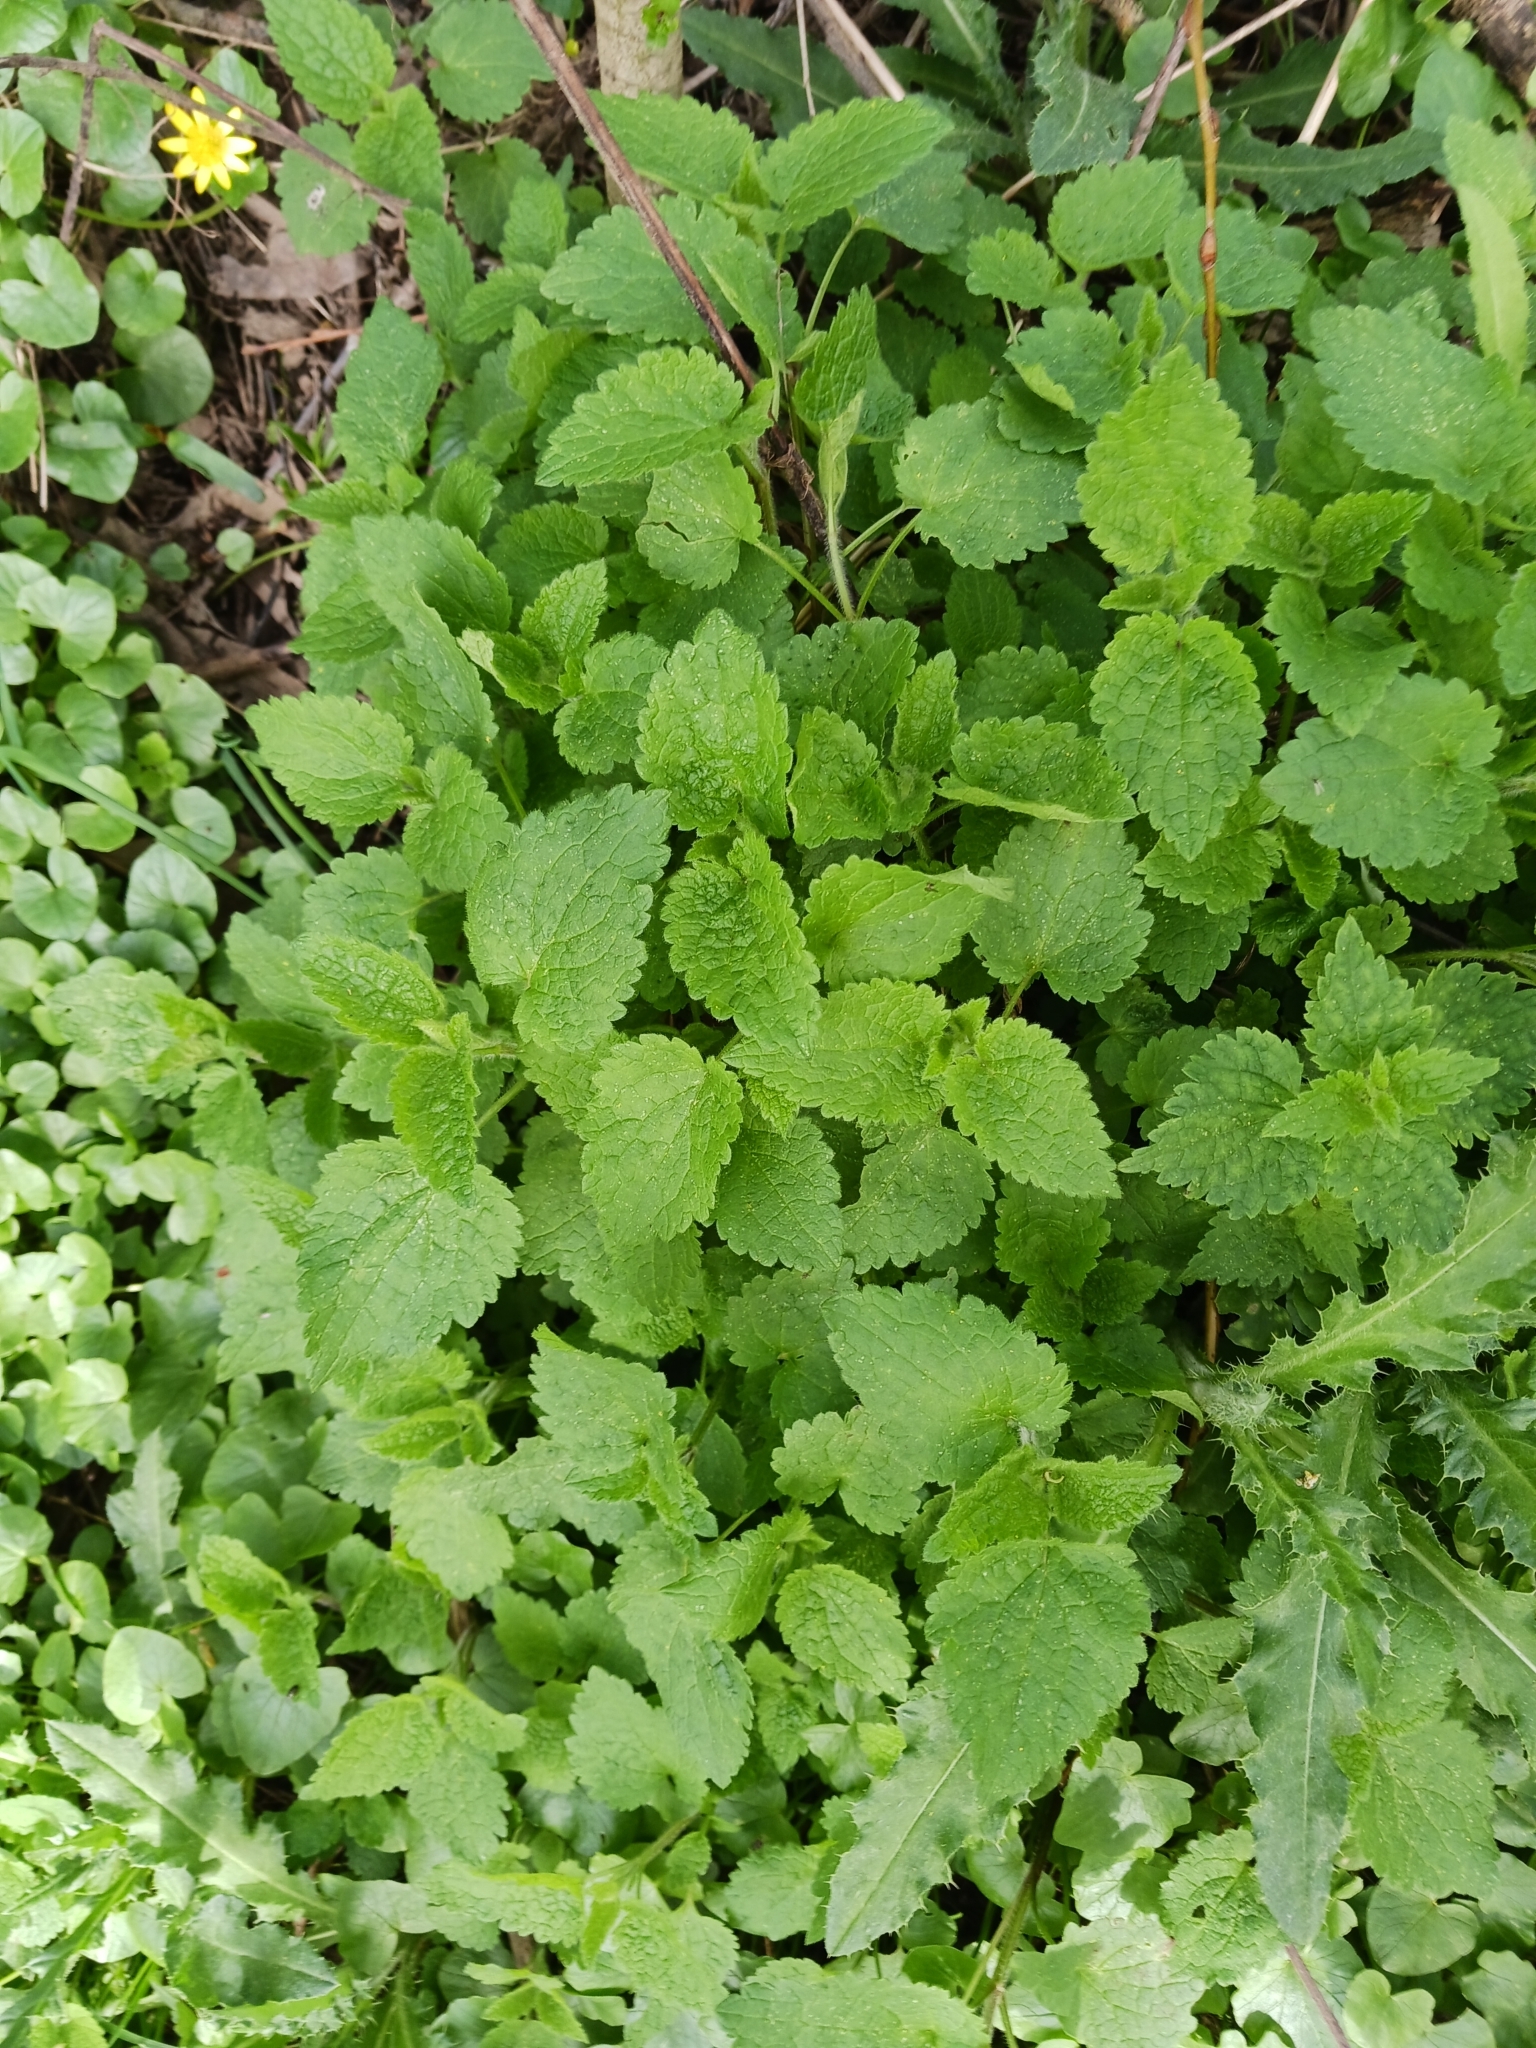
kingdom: Plantae
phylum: Tracheophyta
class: Magnoliopsida
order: Lamiales
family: Lamiaceae
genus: Lamium
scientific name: Lamium album
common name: White dead-nettle
